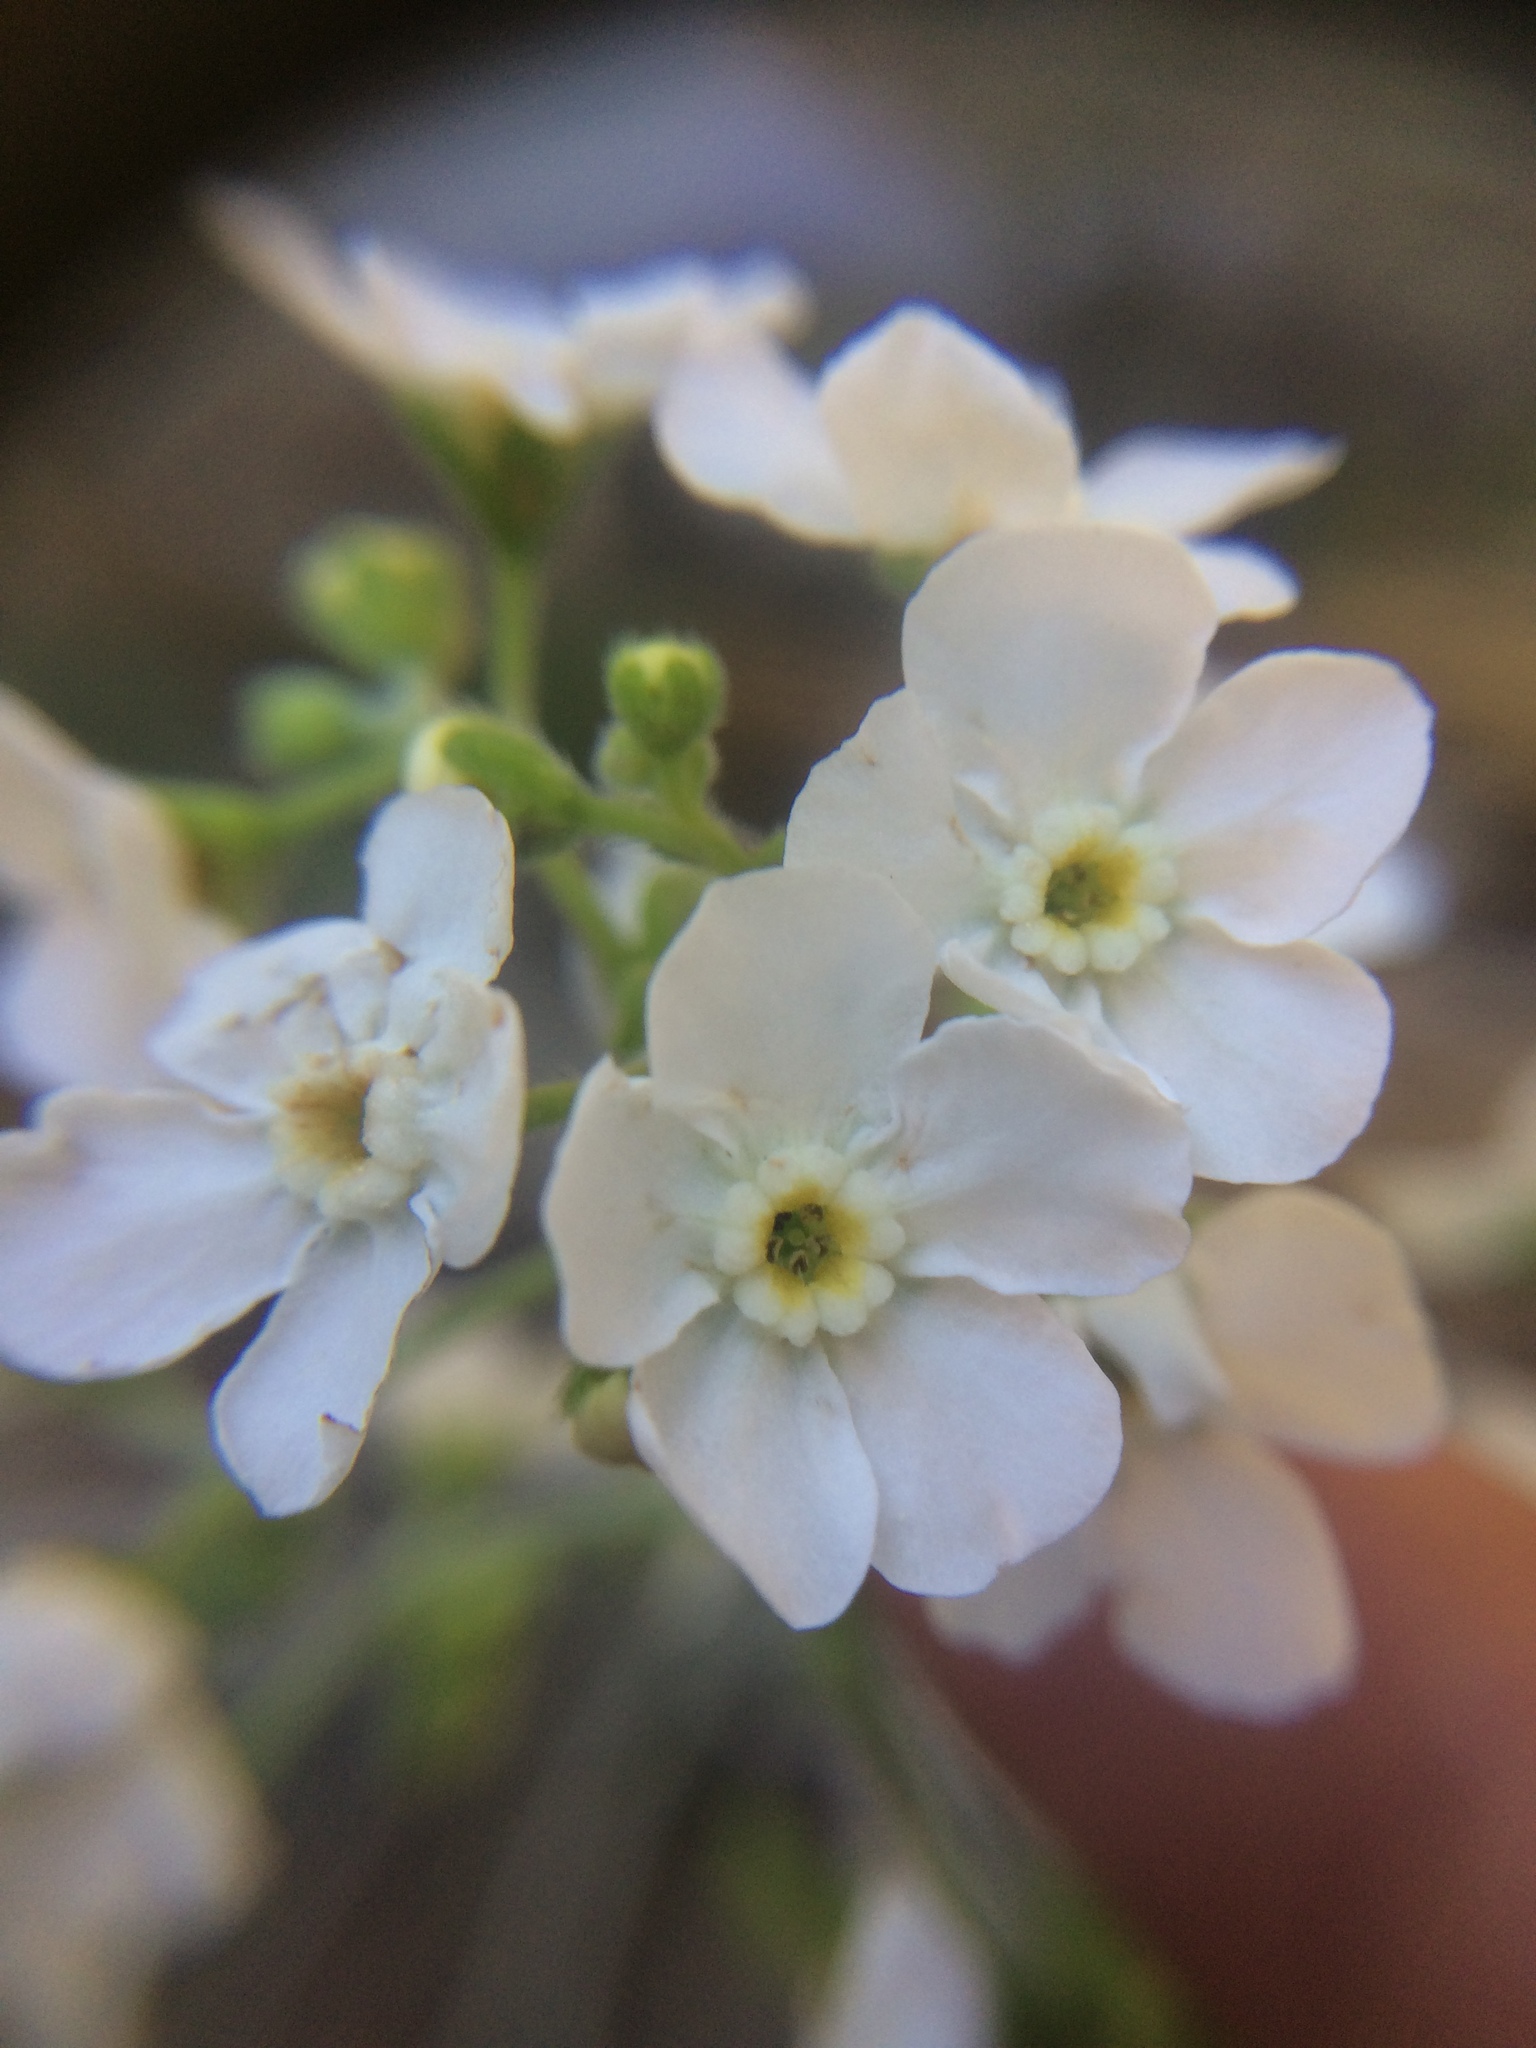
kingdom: Plantae
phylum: Tracheophyta
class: Magnoliopsida
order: Boraginales
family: Boraginaceae
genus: Hackelia
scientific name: Hackelia californica
